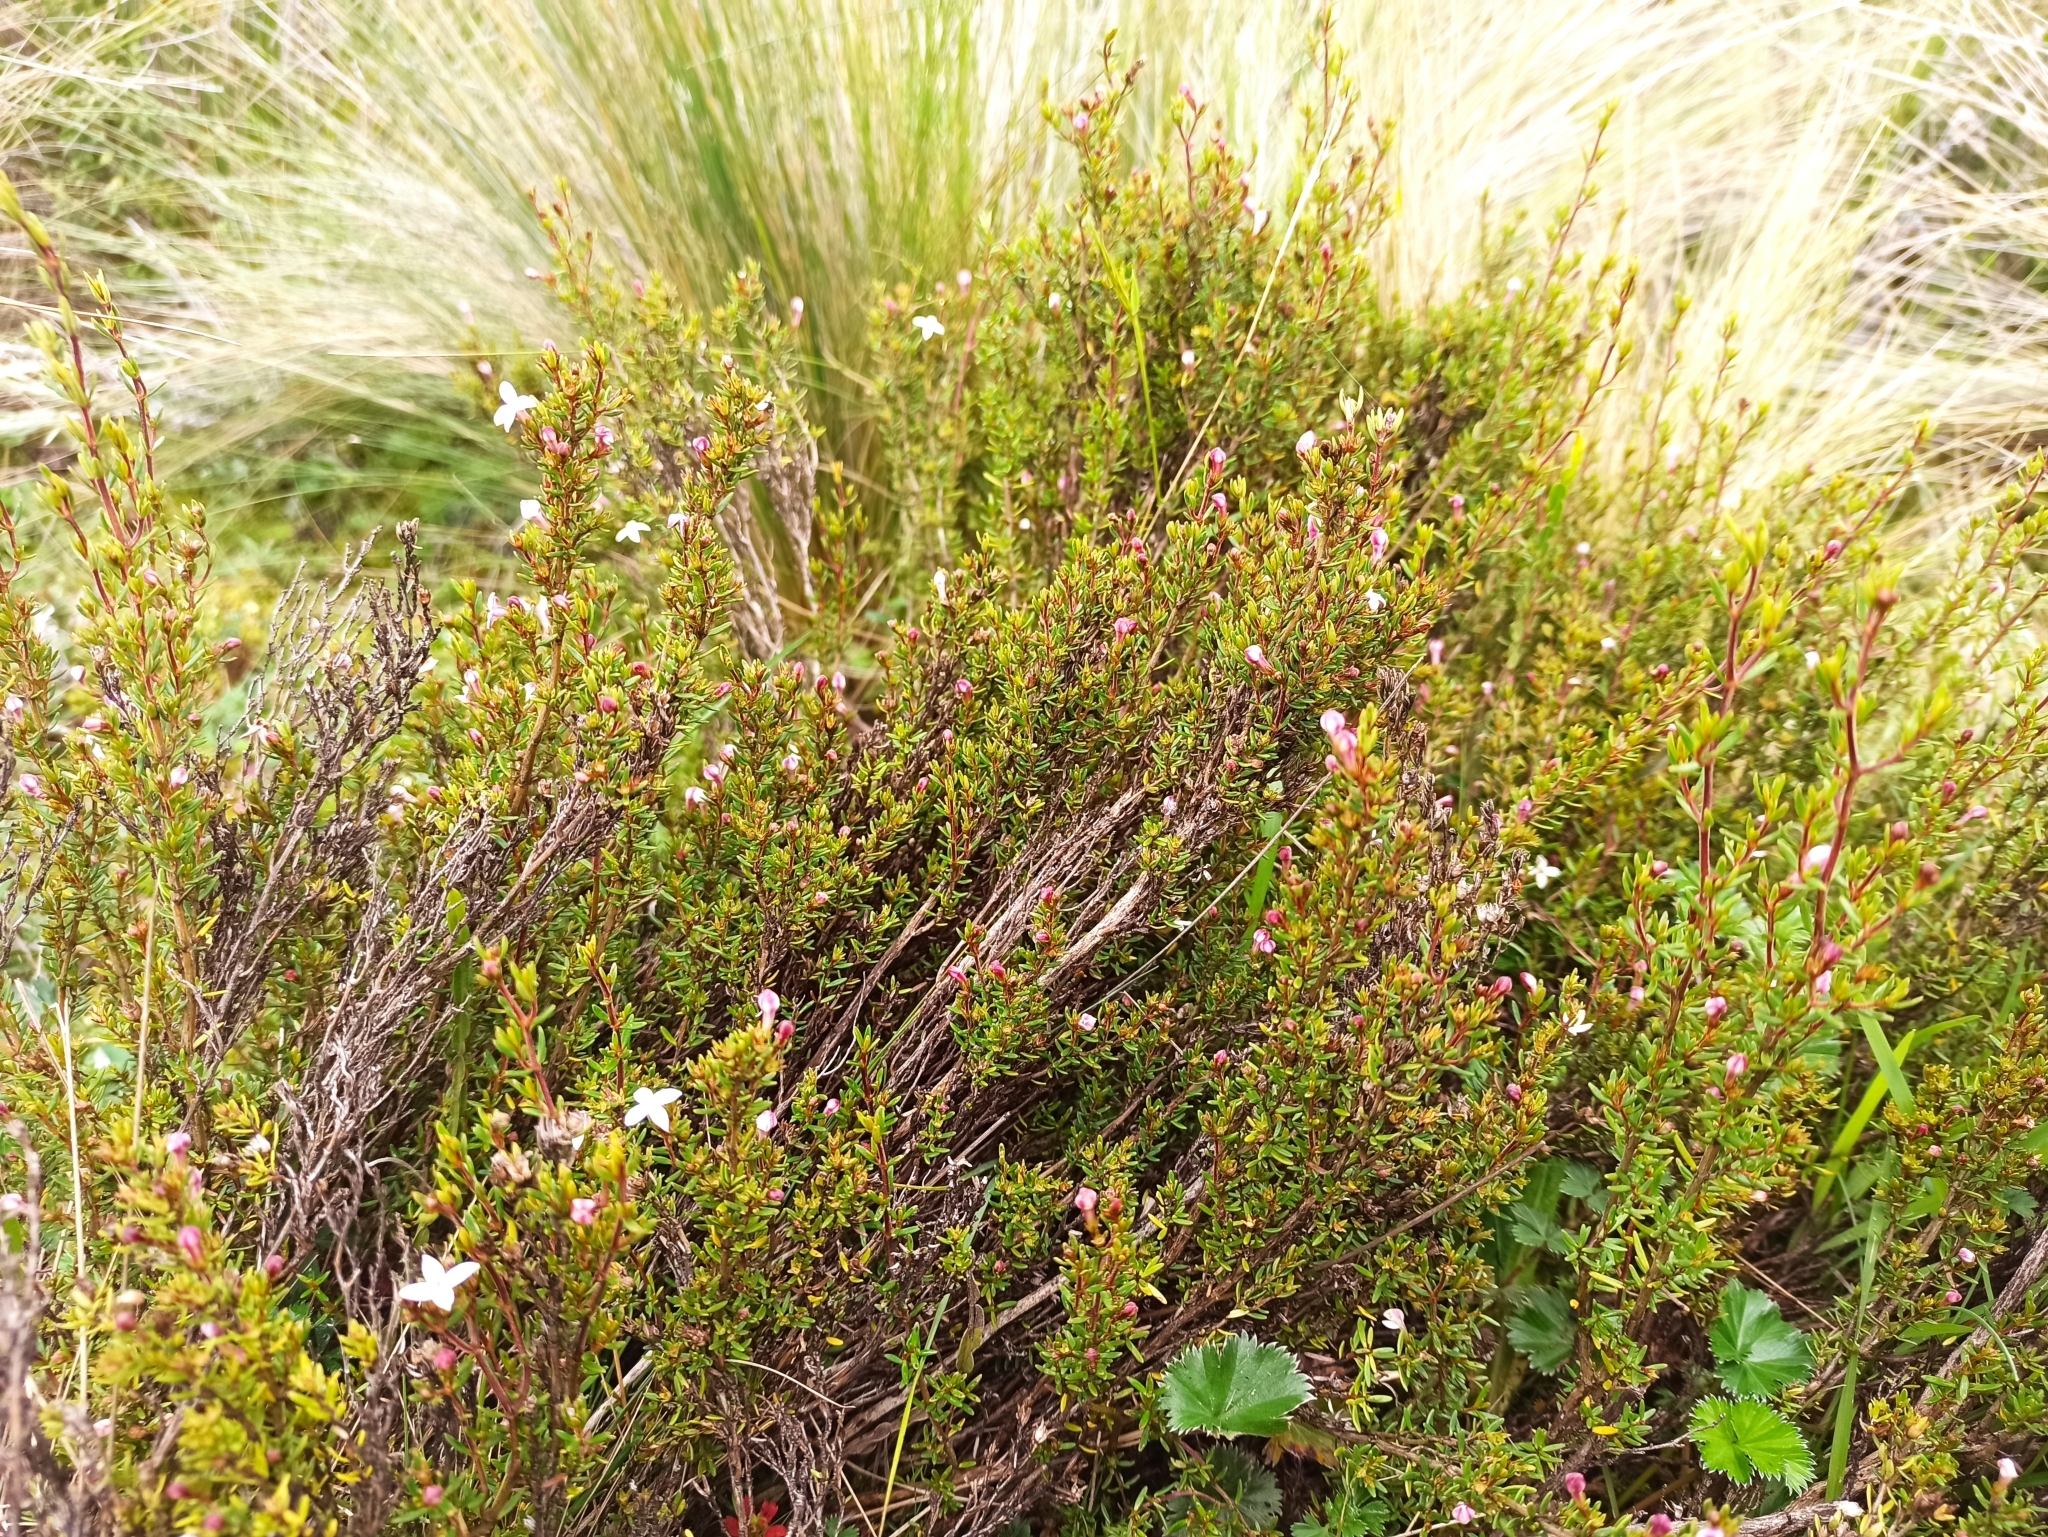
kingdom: Plantae
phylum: Tracheophyta
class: Magnoliopsida
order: Gentianales
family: Rubiaceae
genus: Arcytophyllum
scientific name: Arcytophyllum thymifolium
